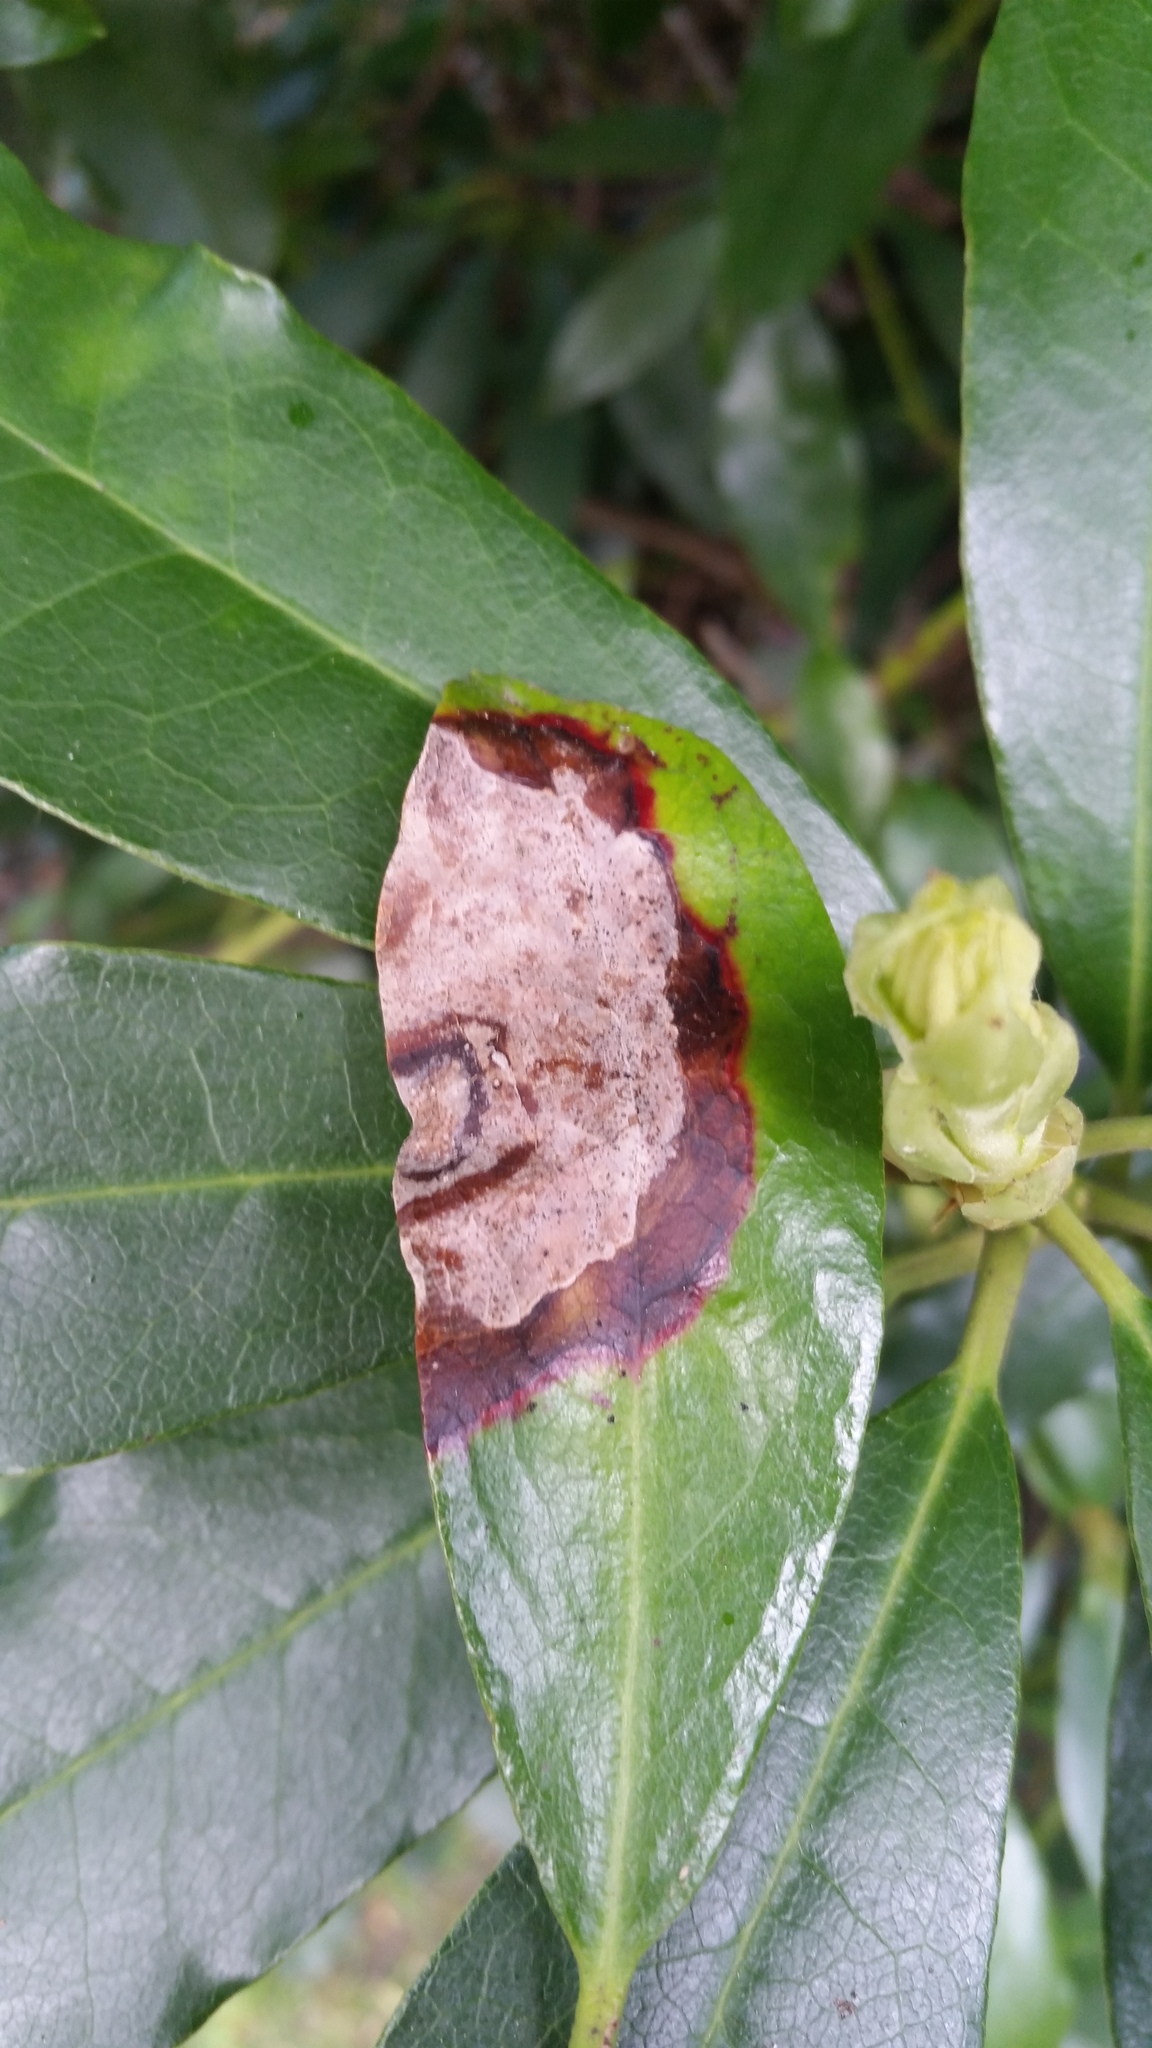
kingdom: Fungi
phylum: Ascomycota
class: Sordariomycetes
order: Glomerellales
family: Glomerellaceae
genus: Colletotrichum
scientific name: Colletotrichum gloeosporioides
